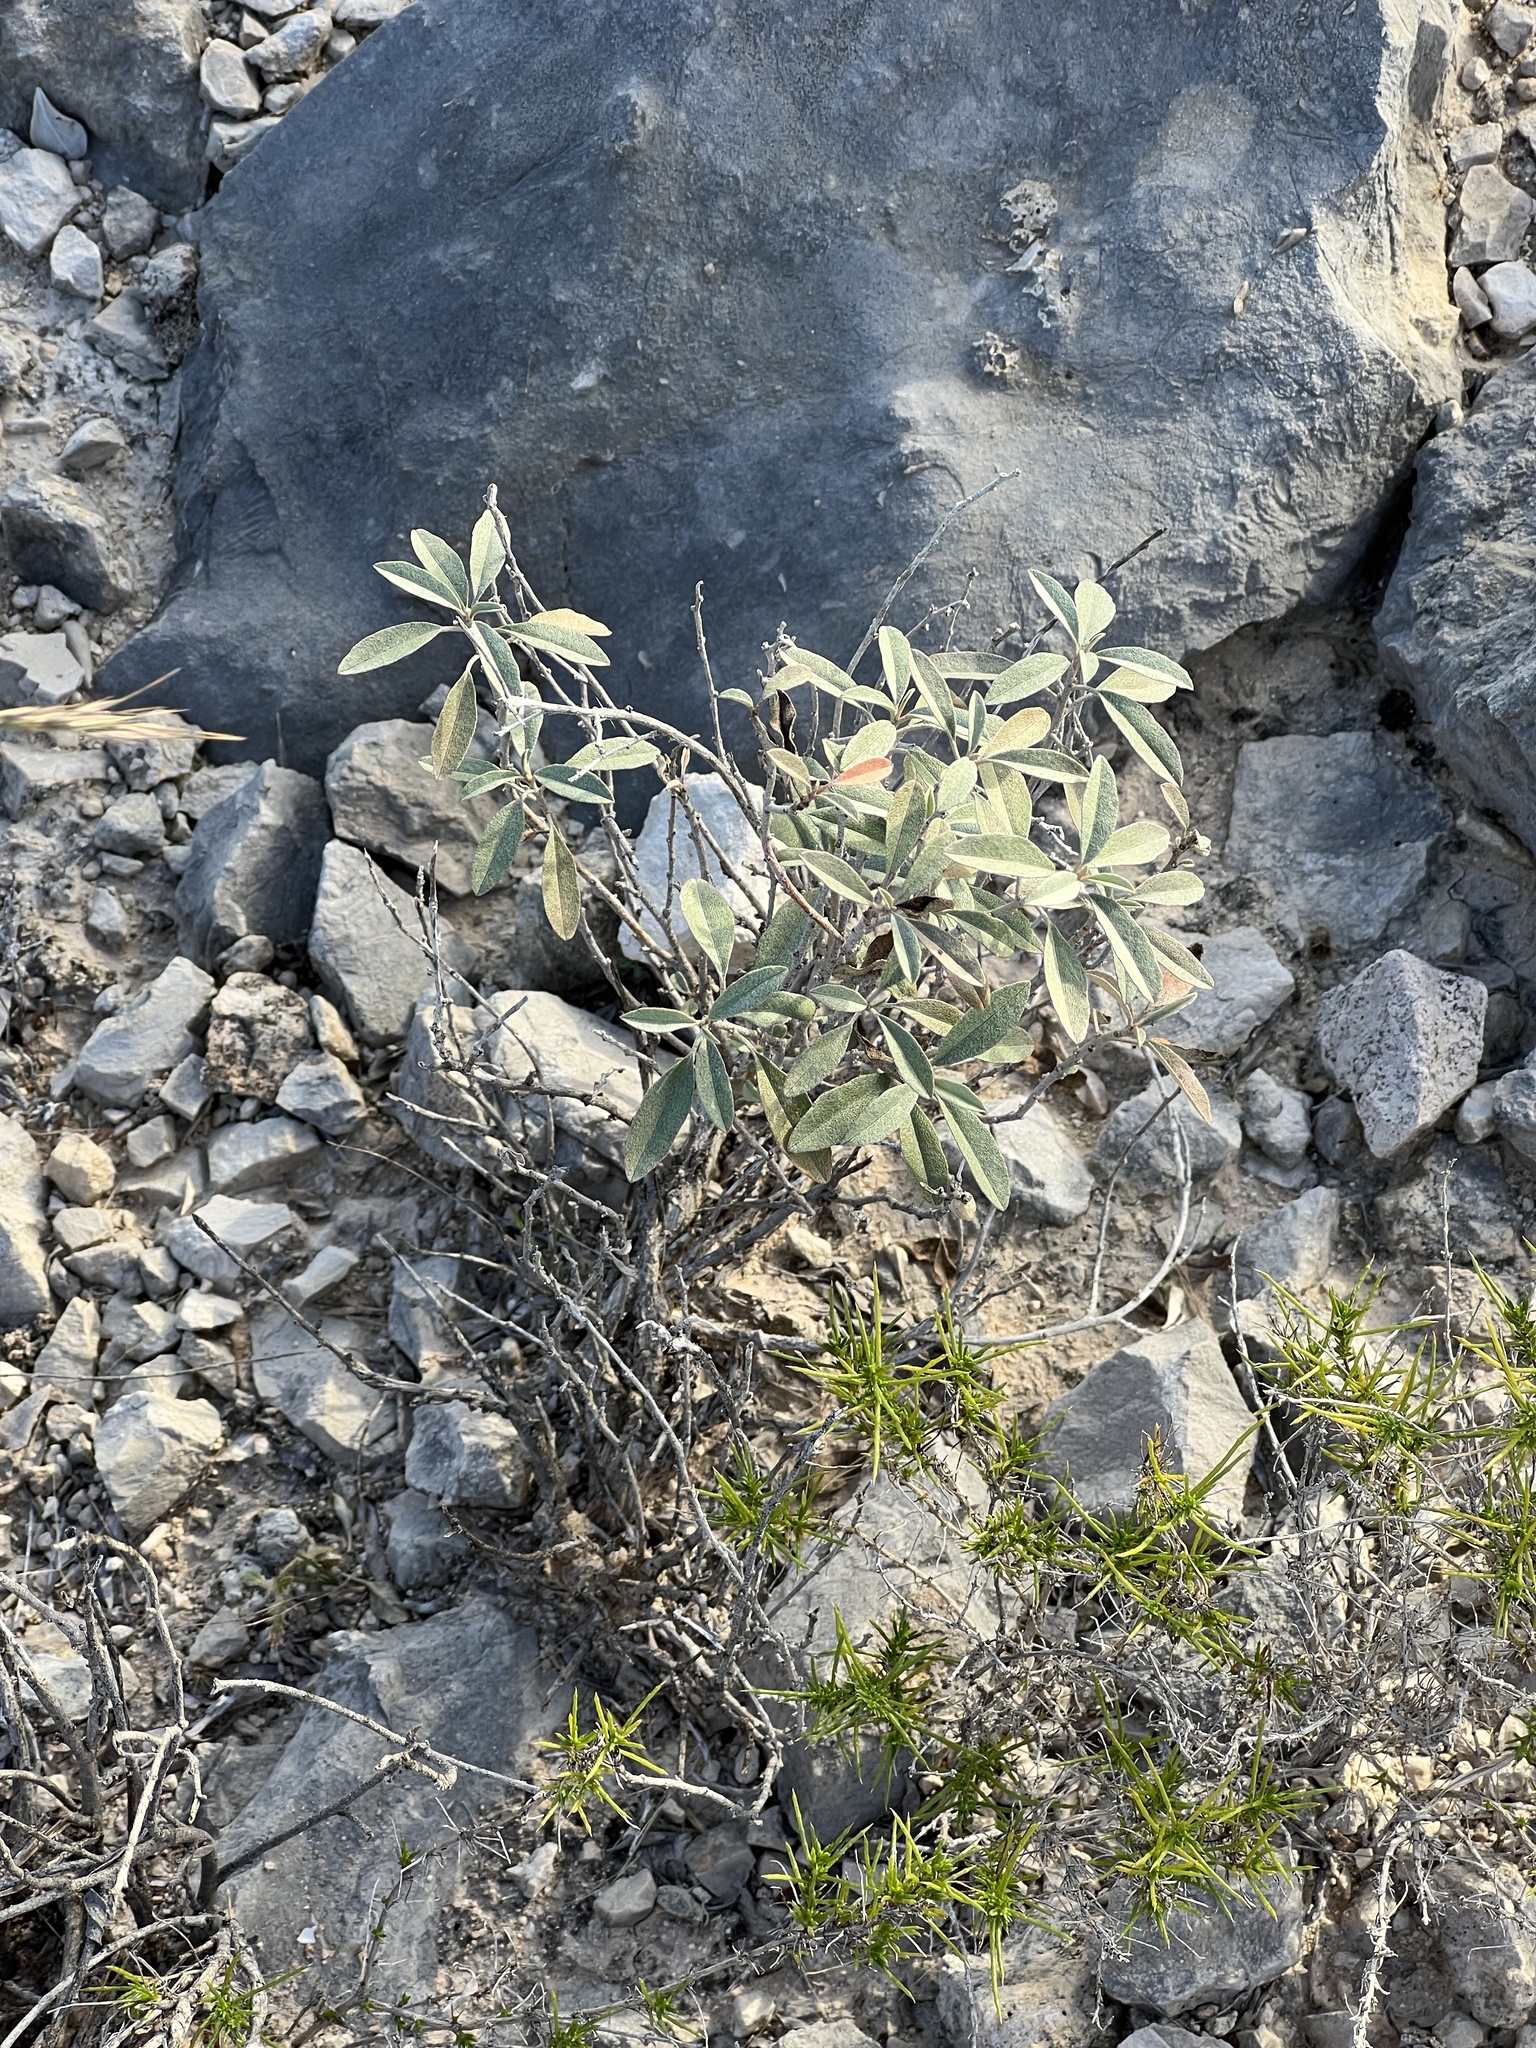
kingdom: Plantae
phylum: Tracheophyta
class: Magnoliopsida
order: Malpighiales
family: Euphorbiaceae
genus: Croton
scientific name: Croton dioicus
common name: Grassland croton
